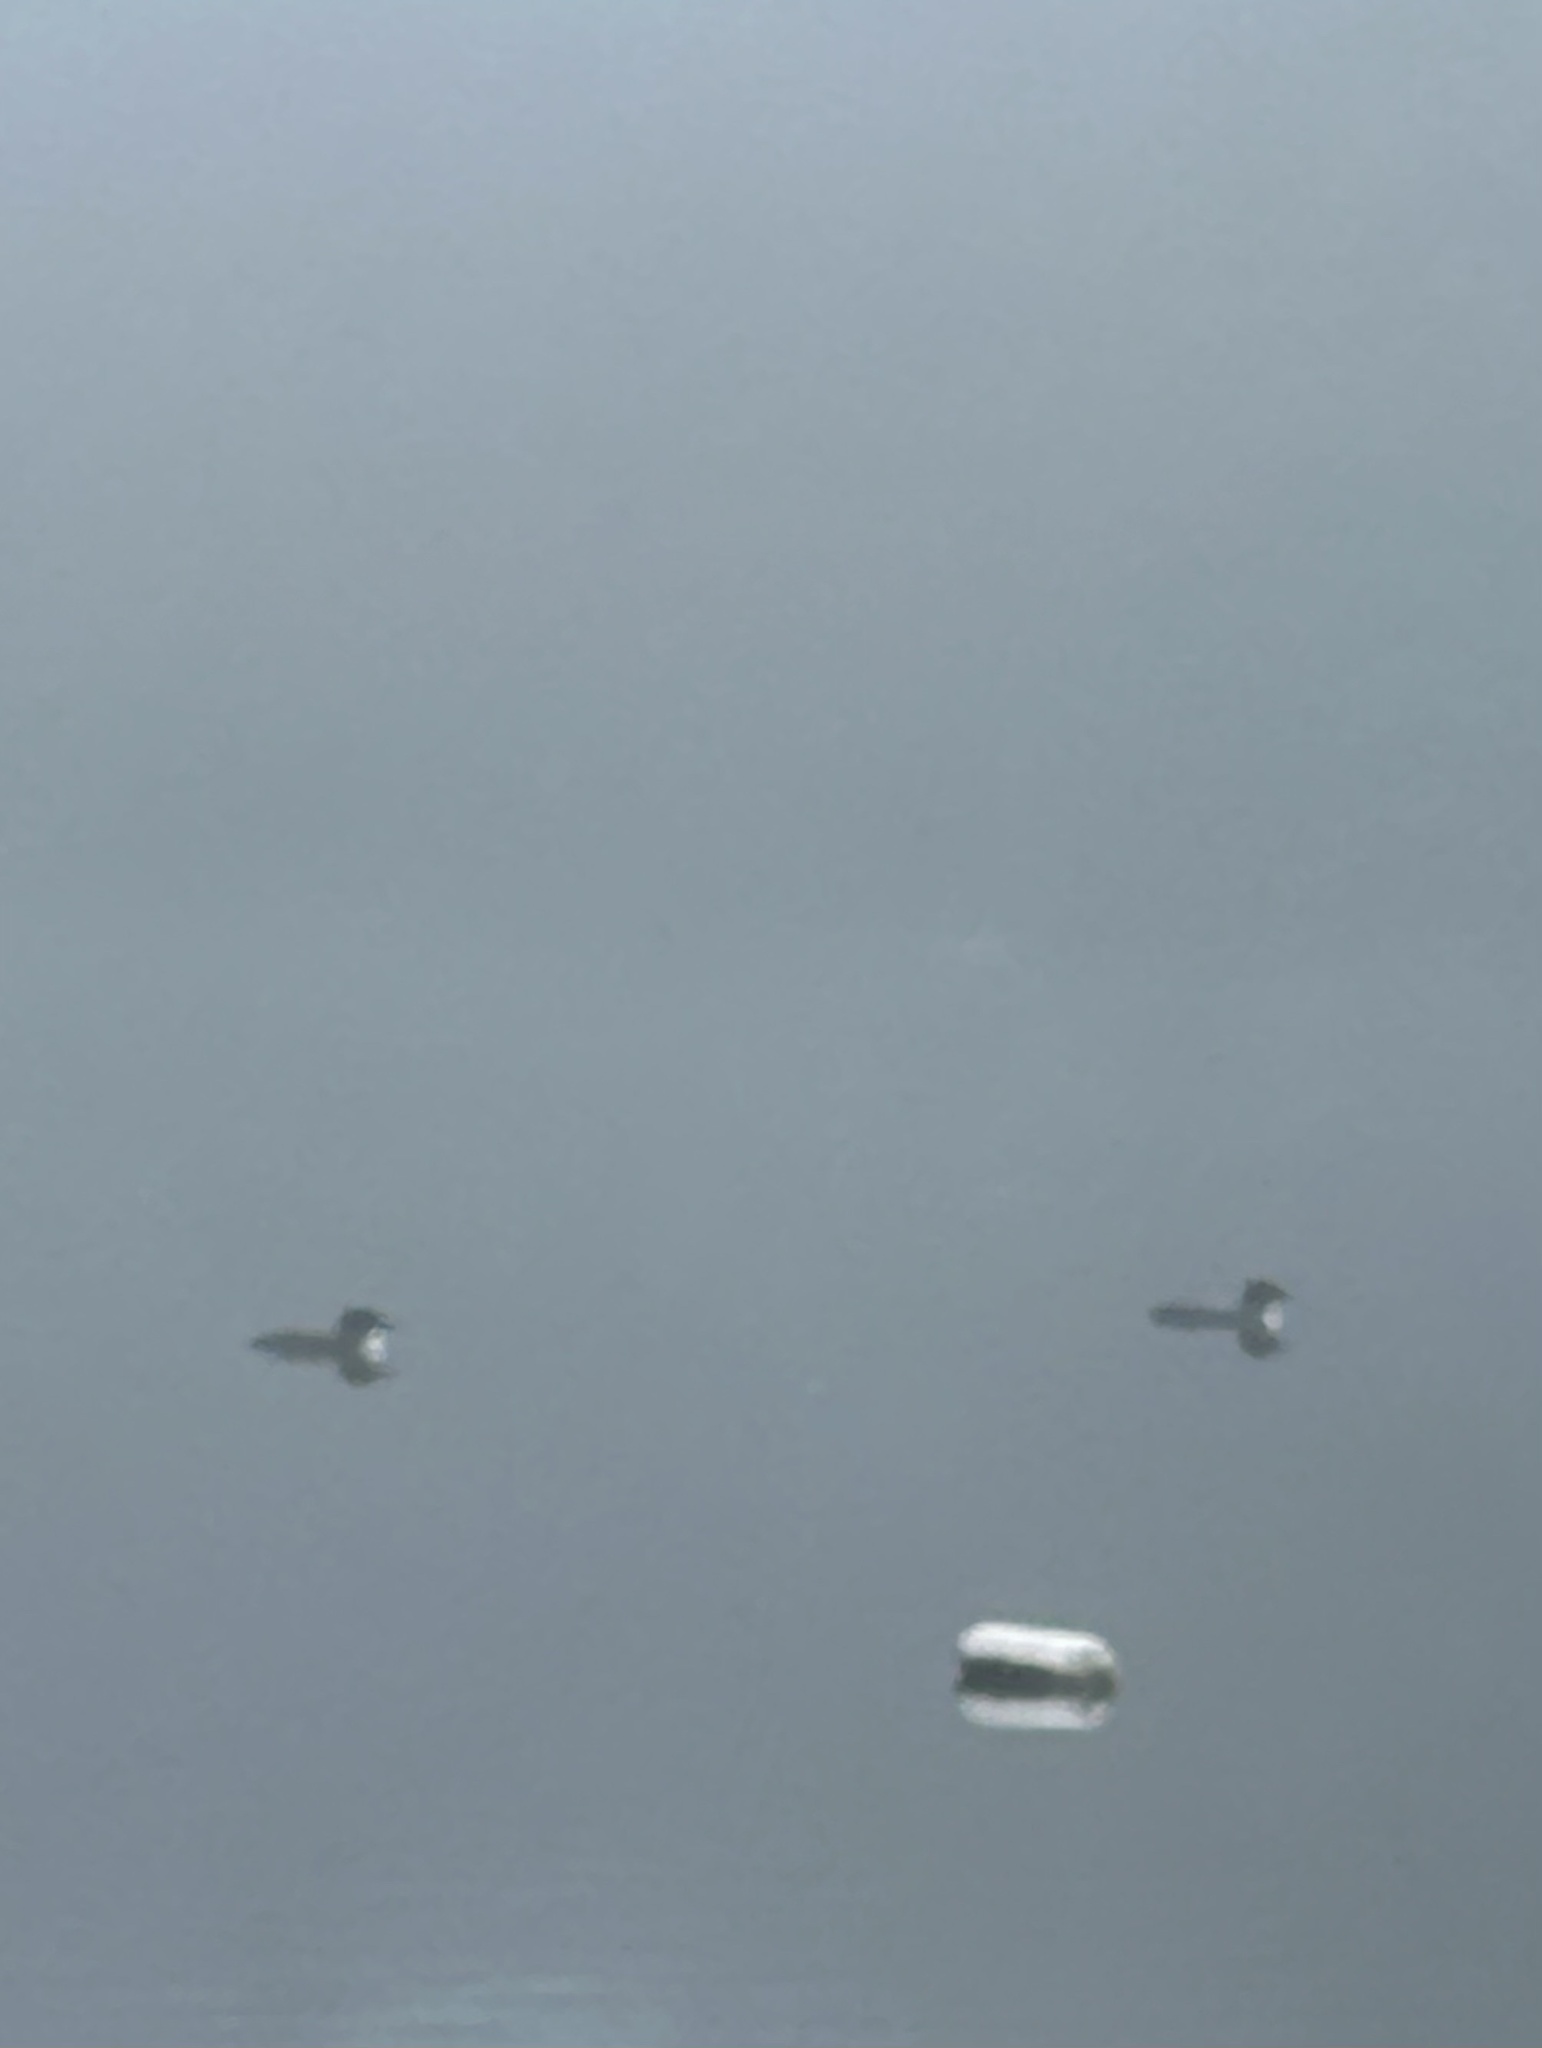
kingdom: Animalia
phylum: Chordata
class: Aves
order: Gaviiformes
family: Gaviidae
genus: Gavia
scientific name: Gavia immer
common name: Common loon
